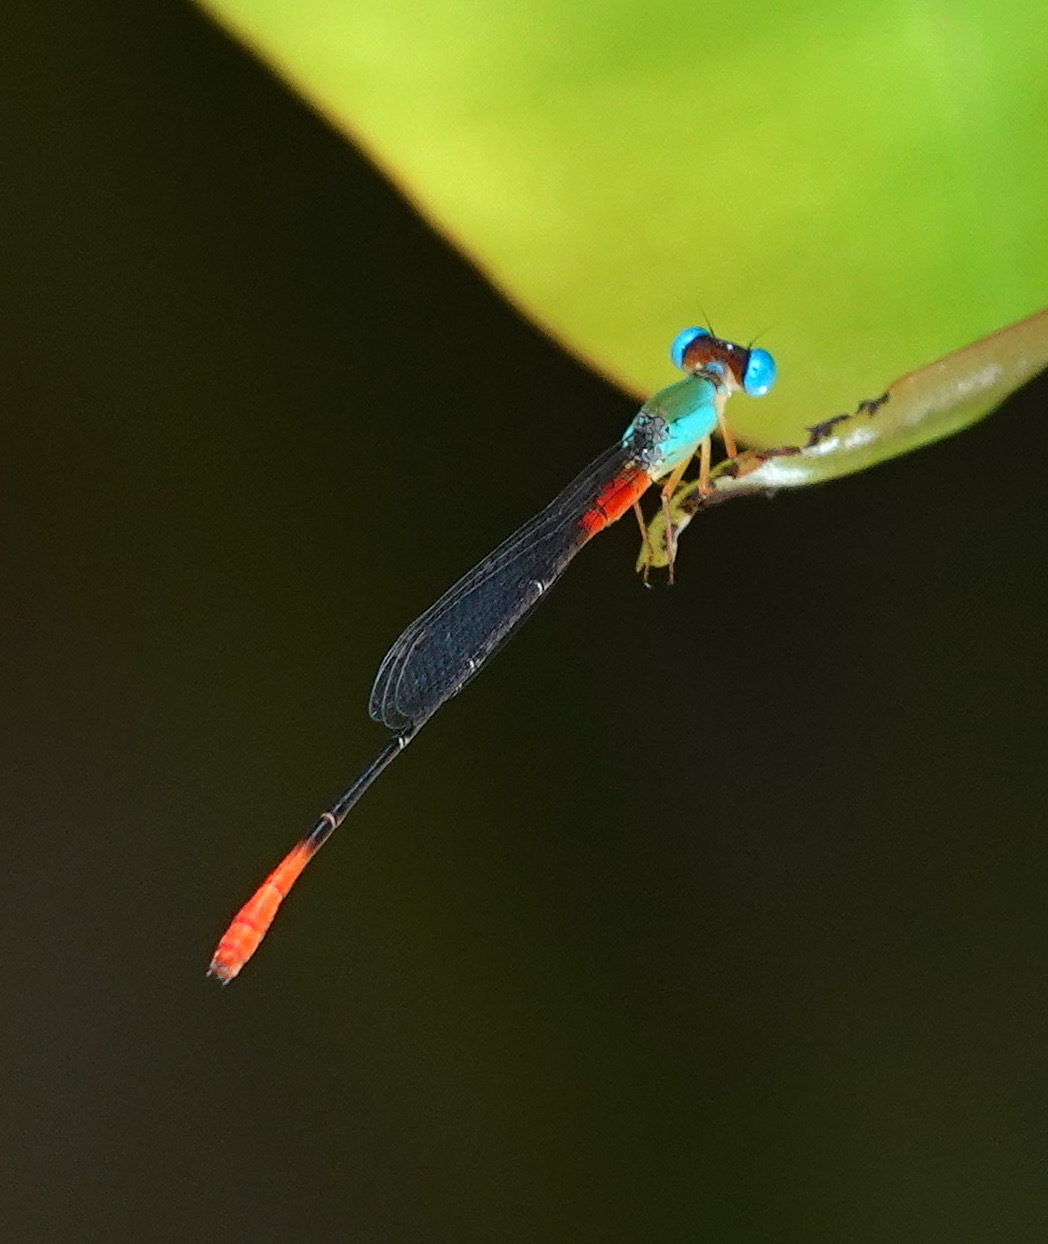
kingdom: Animalia
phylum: Arthropoda
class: Insecta
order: Odonata
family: Coenagrionidae
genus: Ceriagrion
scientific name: Ceriagrion cerinorubellum
